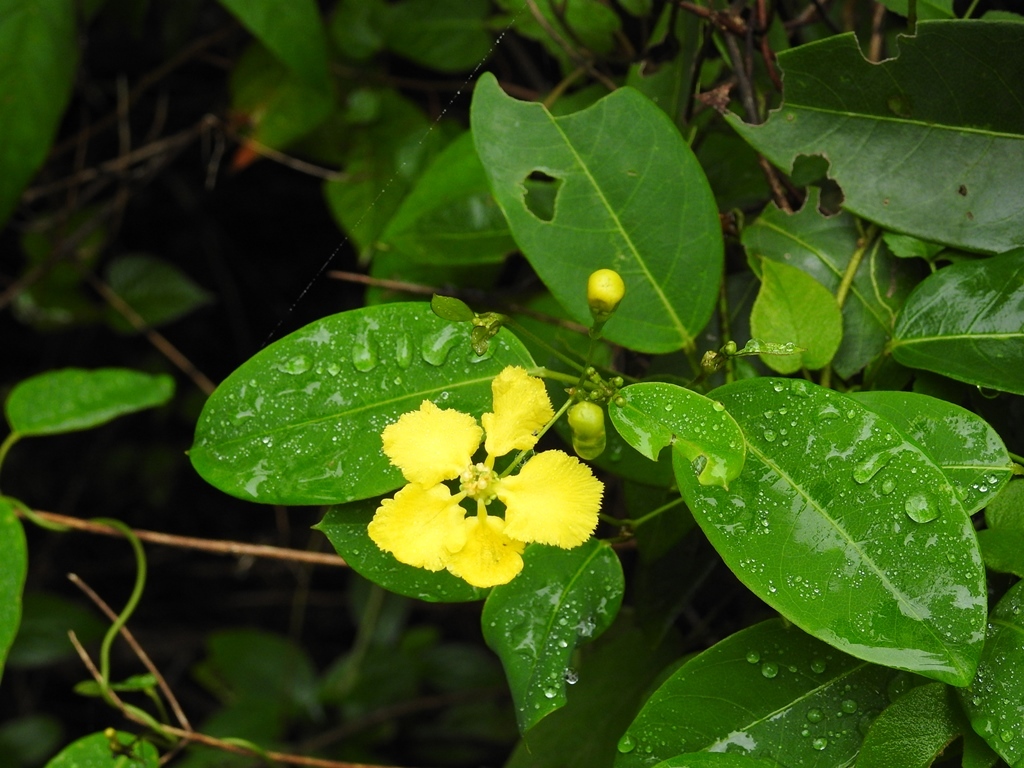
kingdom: Plantae
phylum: Tracheophyta
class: Magnoliopsida
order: Malpighiales
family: Malpighiaceae
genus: Stigmaphyllon
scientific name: Stigmaphyllon ellipticum
